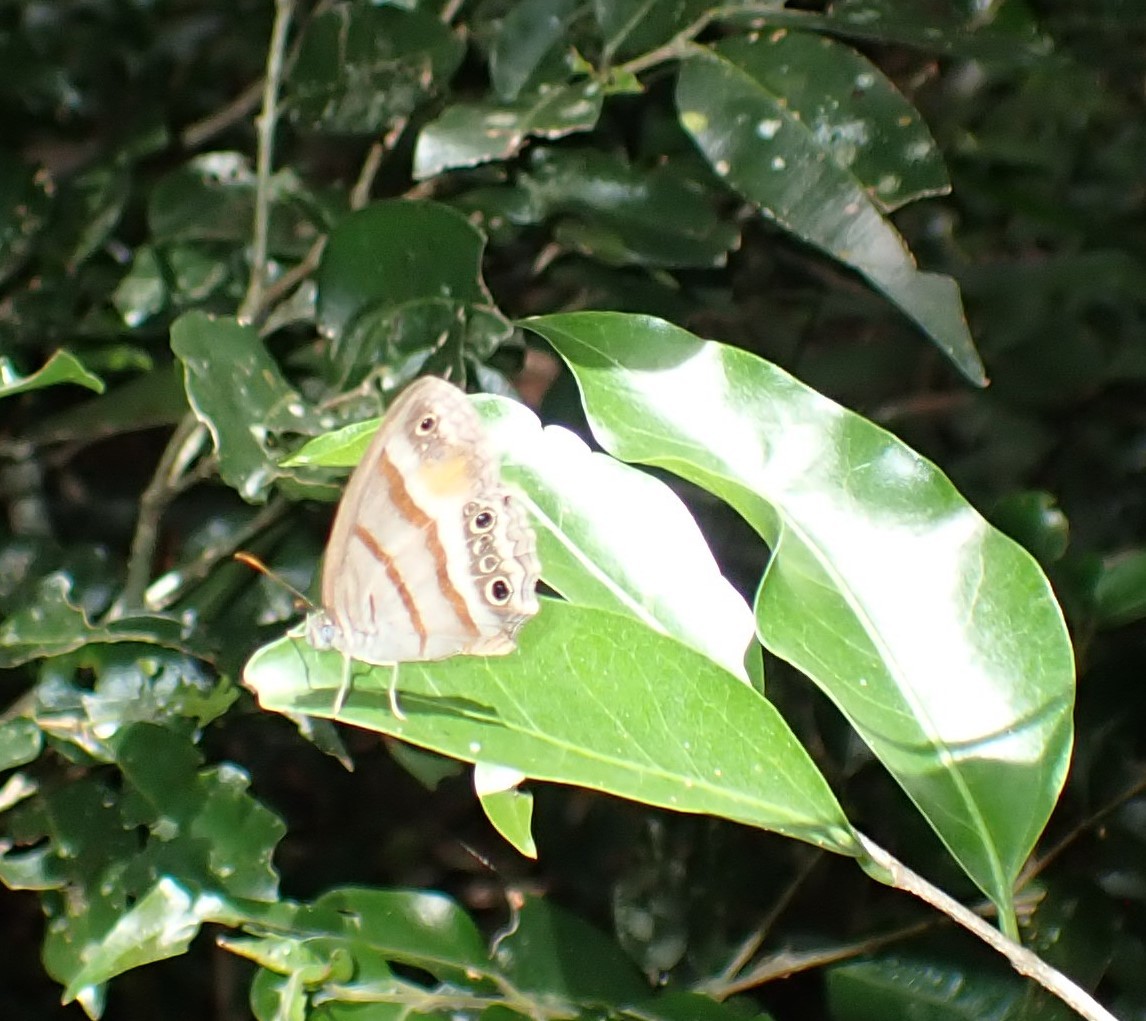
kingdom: Animalia
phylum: Arthropoda
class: Insecta
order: Lepidoptera
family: Nymphalidae
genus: Euptychia
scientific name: Euptychia
